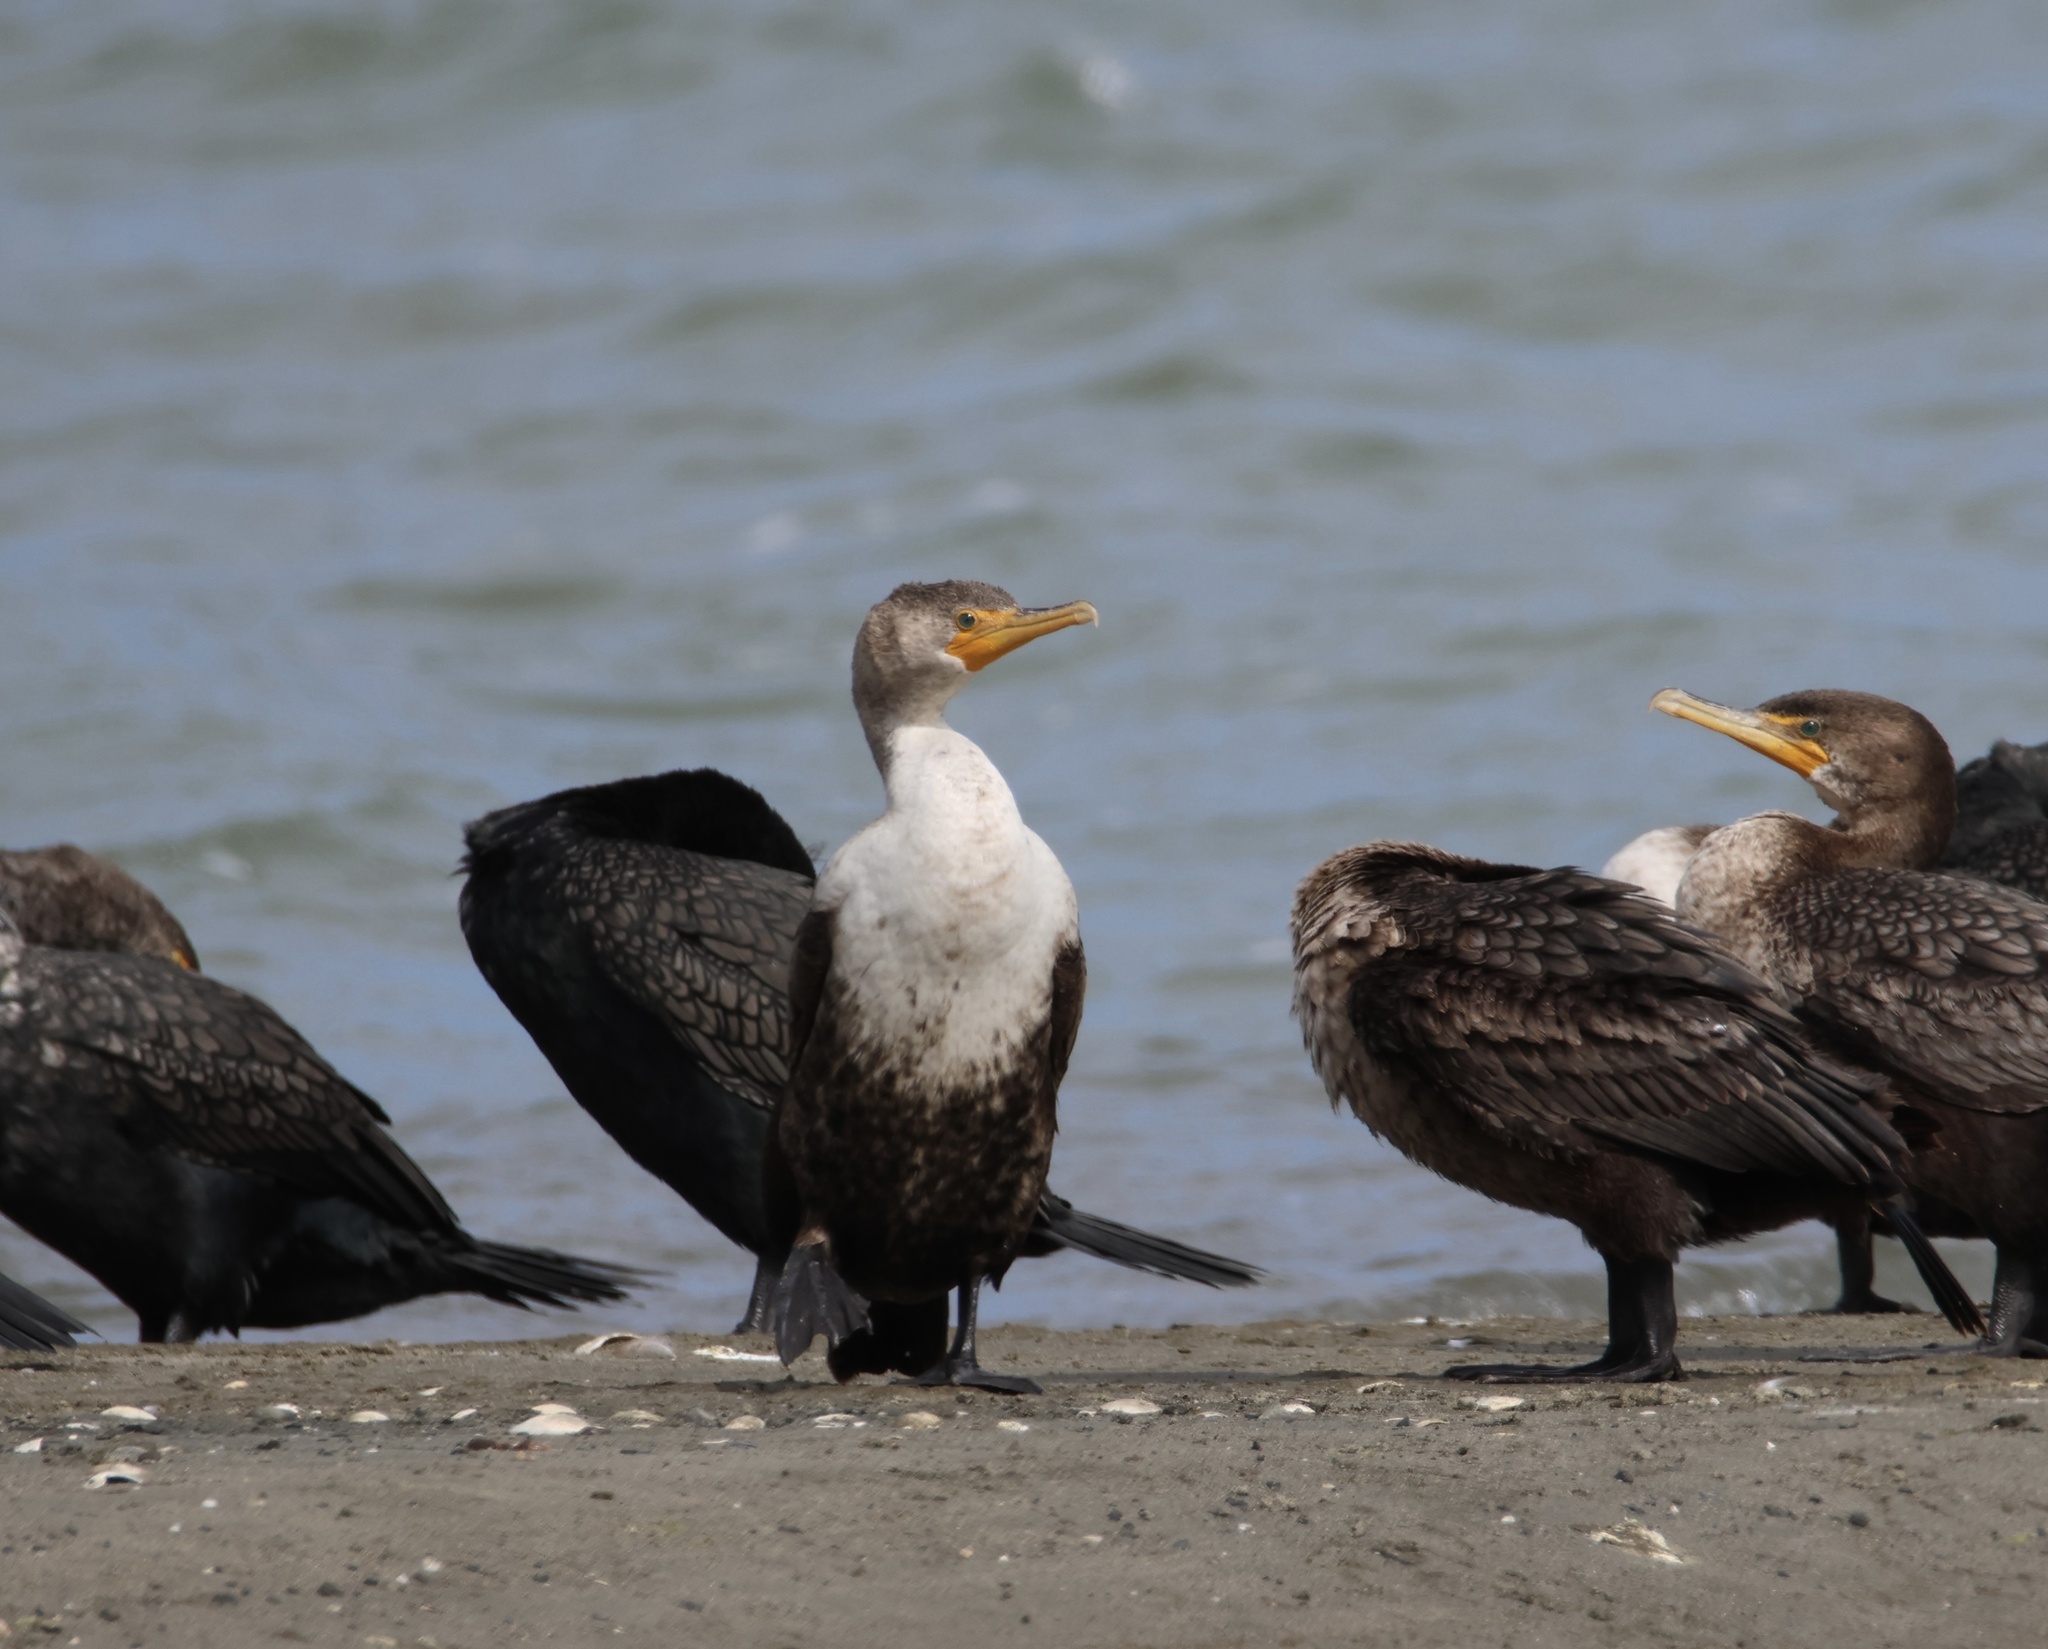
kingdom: Animalia
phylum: Chordata
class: Aves
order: Suliformes
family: Phalacrocoracidae
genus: Phalacrocorax
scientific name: Phalacrocorax auritus
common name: Double-crested cormorant
